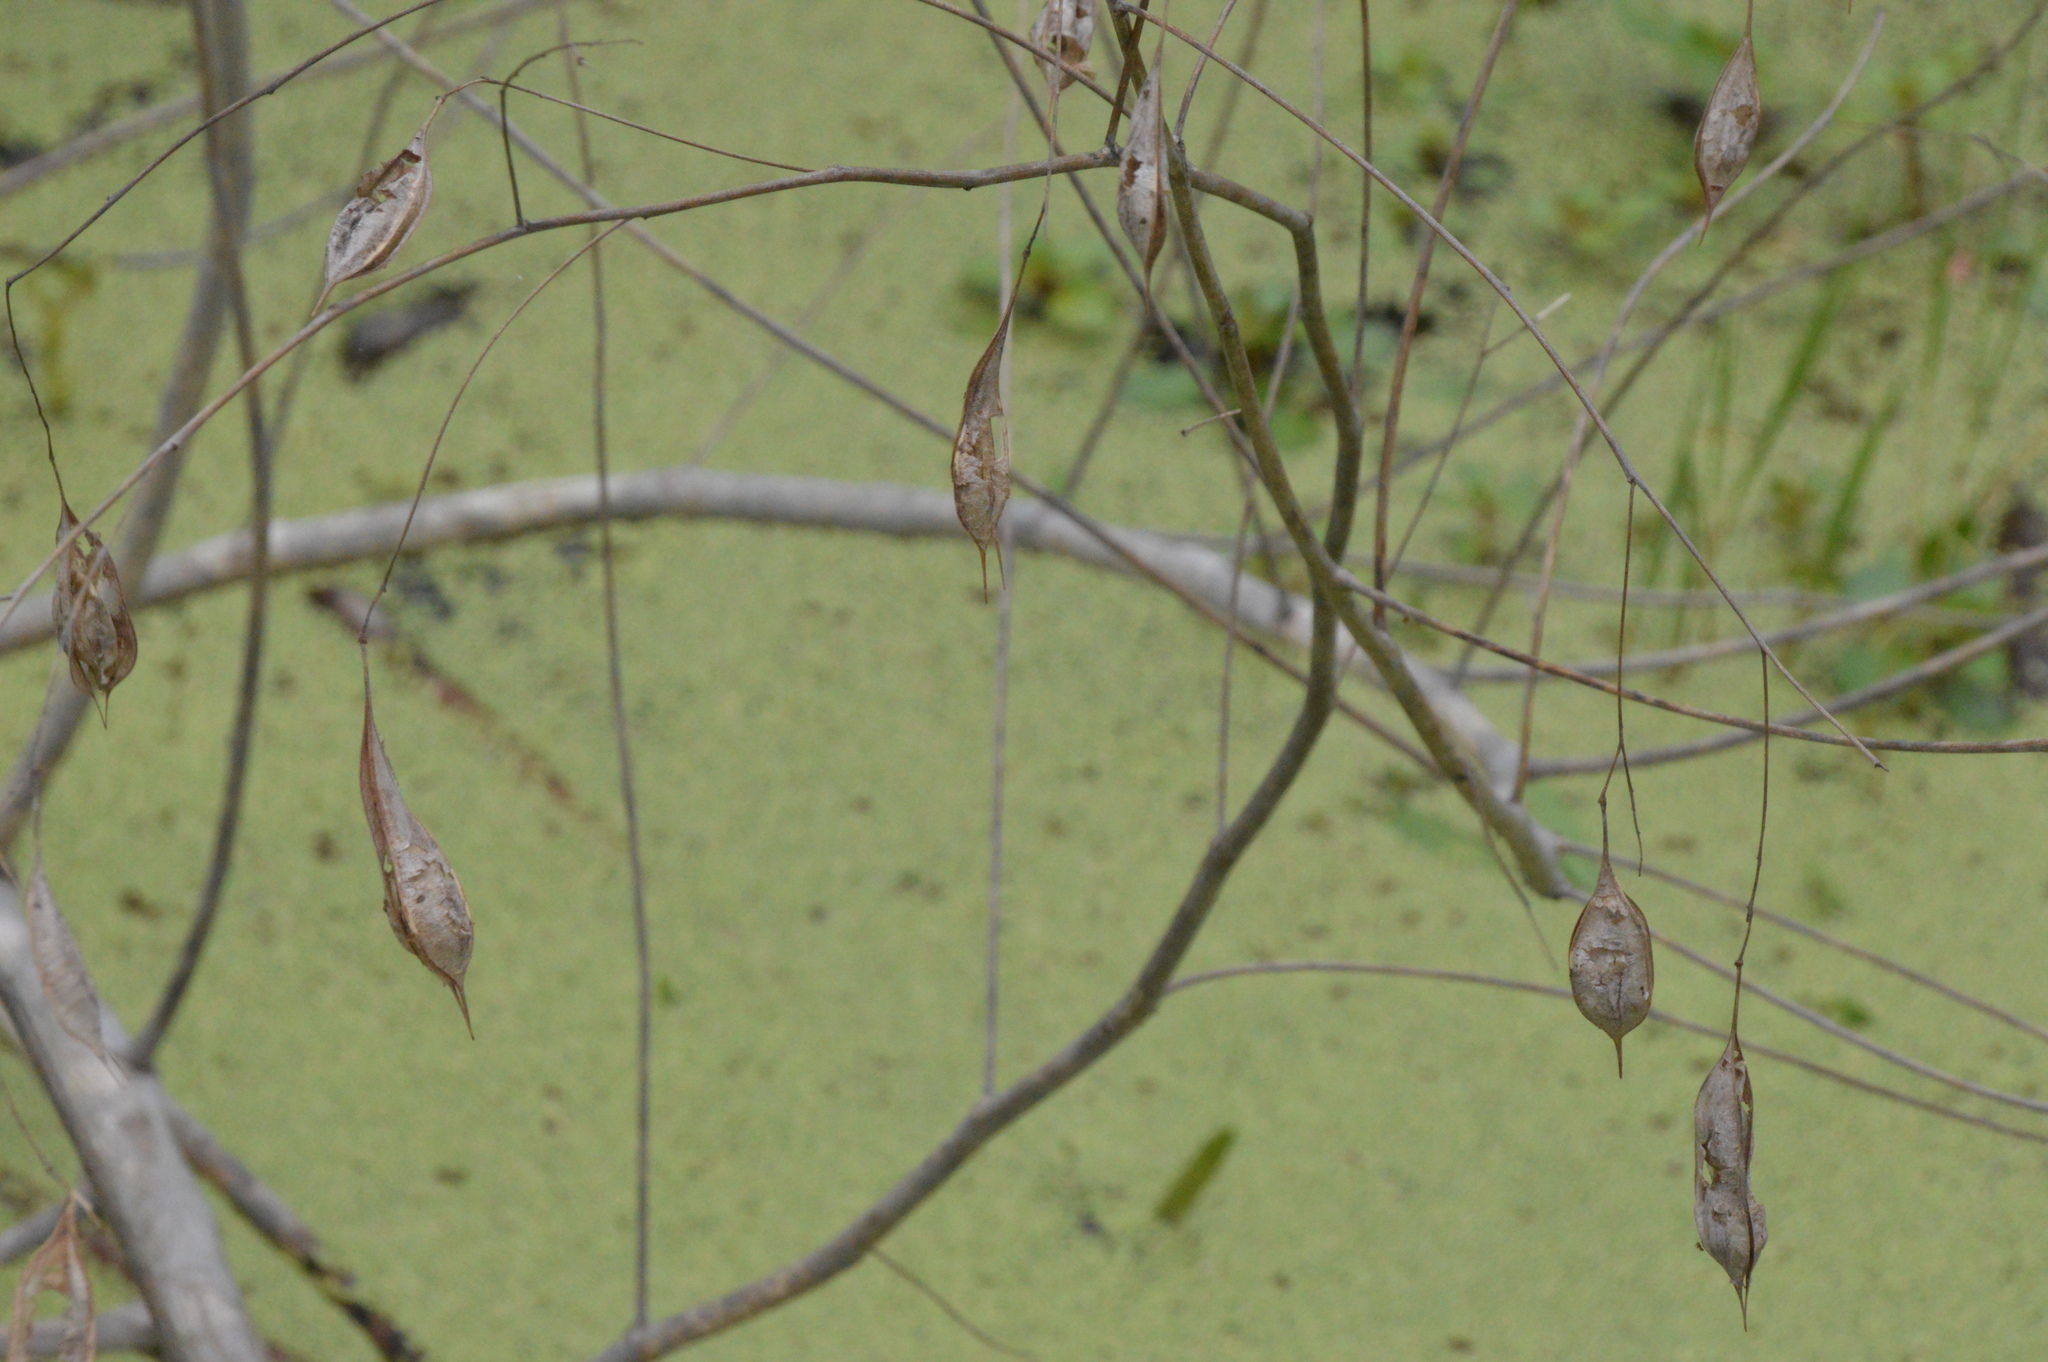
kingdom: Plantae
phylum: Tracheophyta
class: Magnoliopsida
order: Fabales
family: Fabaceae
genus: Sesbania
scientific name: Sesbania vesicaria
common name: Bagpod
